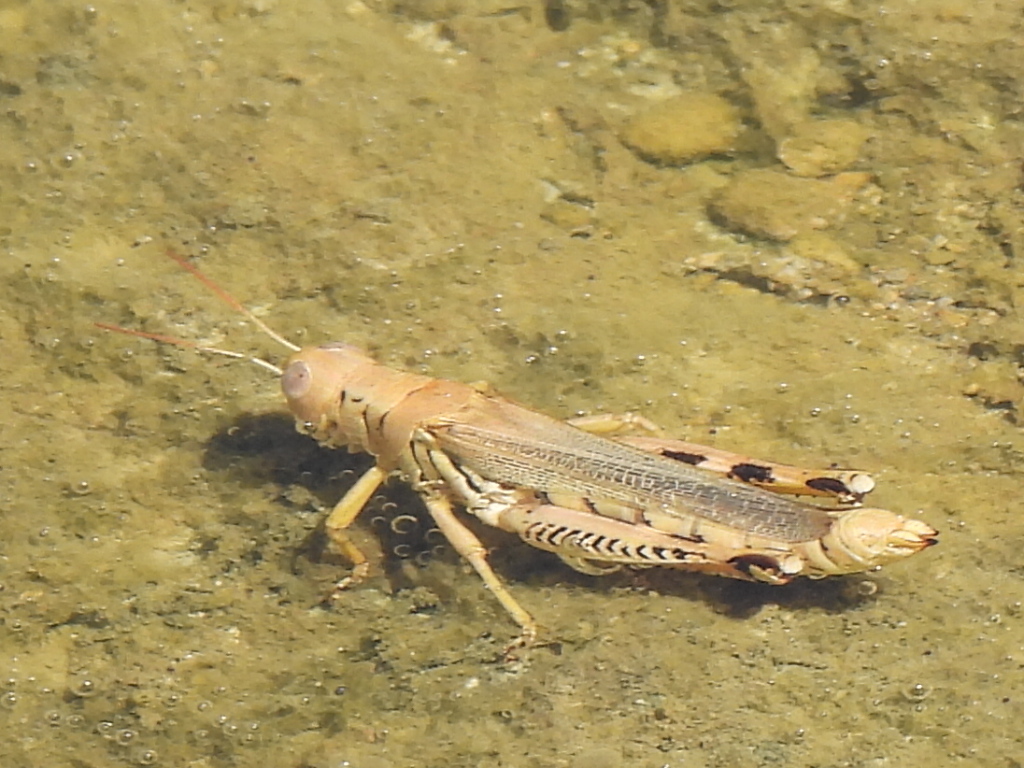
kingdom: Animalia
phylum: Arthropoda
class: Insecta
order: Orthoptera
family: Acrididae
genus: Melanoplus
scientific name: Melanoplus differentialis
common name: Differential grasshopper
